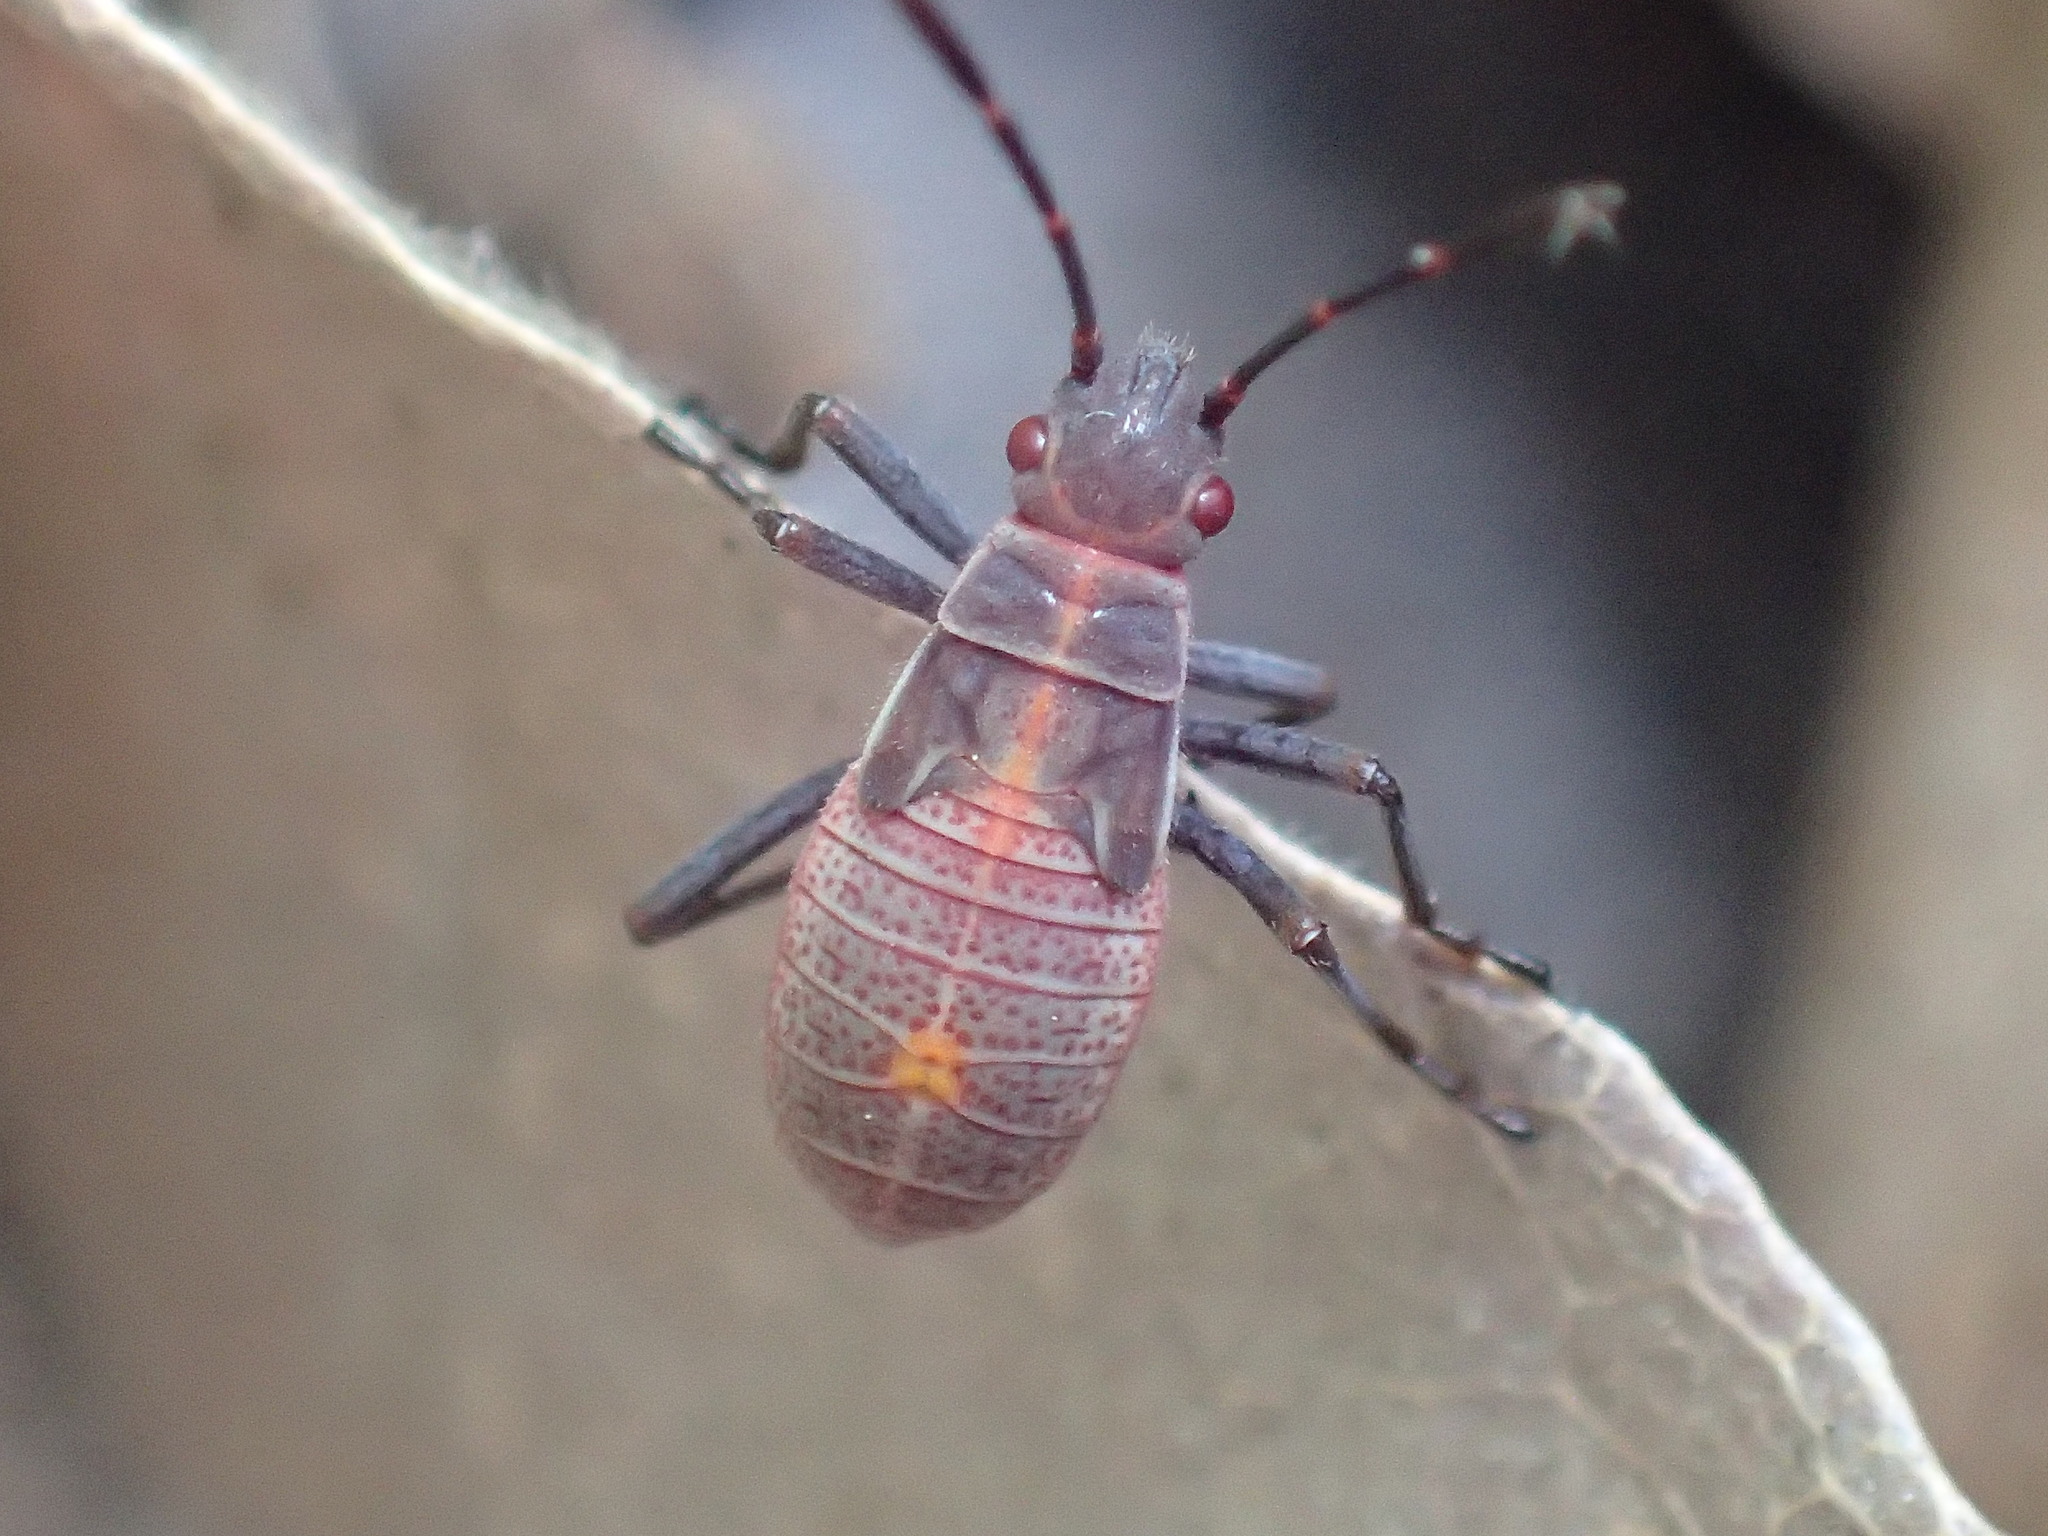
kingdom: Animalia
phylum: Arthropoda
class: Insecta
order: Hemiptera
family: Rhopalidae
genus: Boisea
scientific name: Boisea rubrolineata
